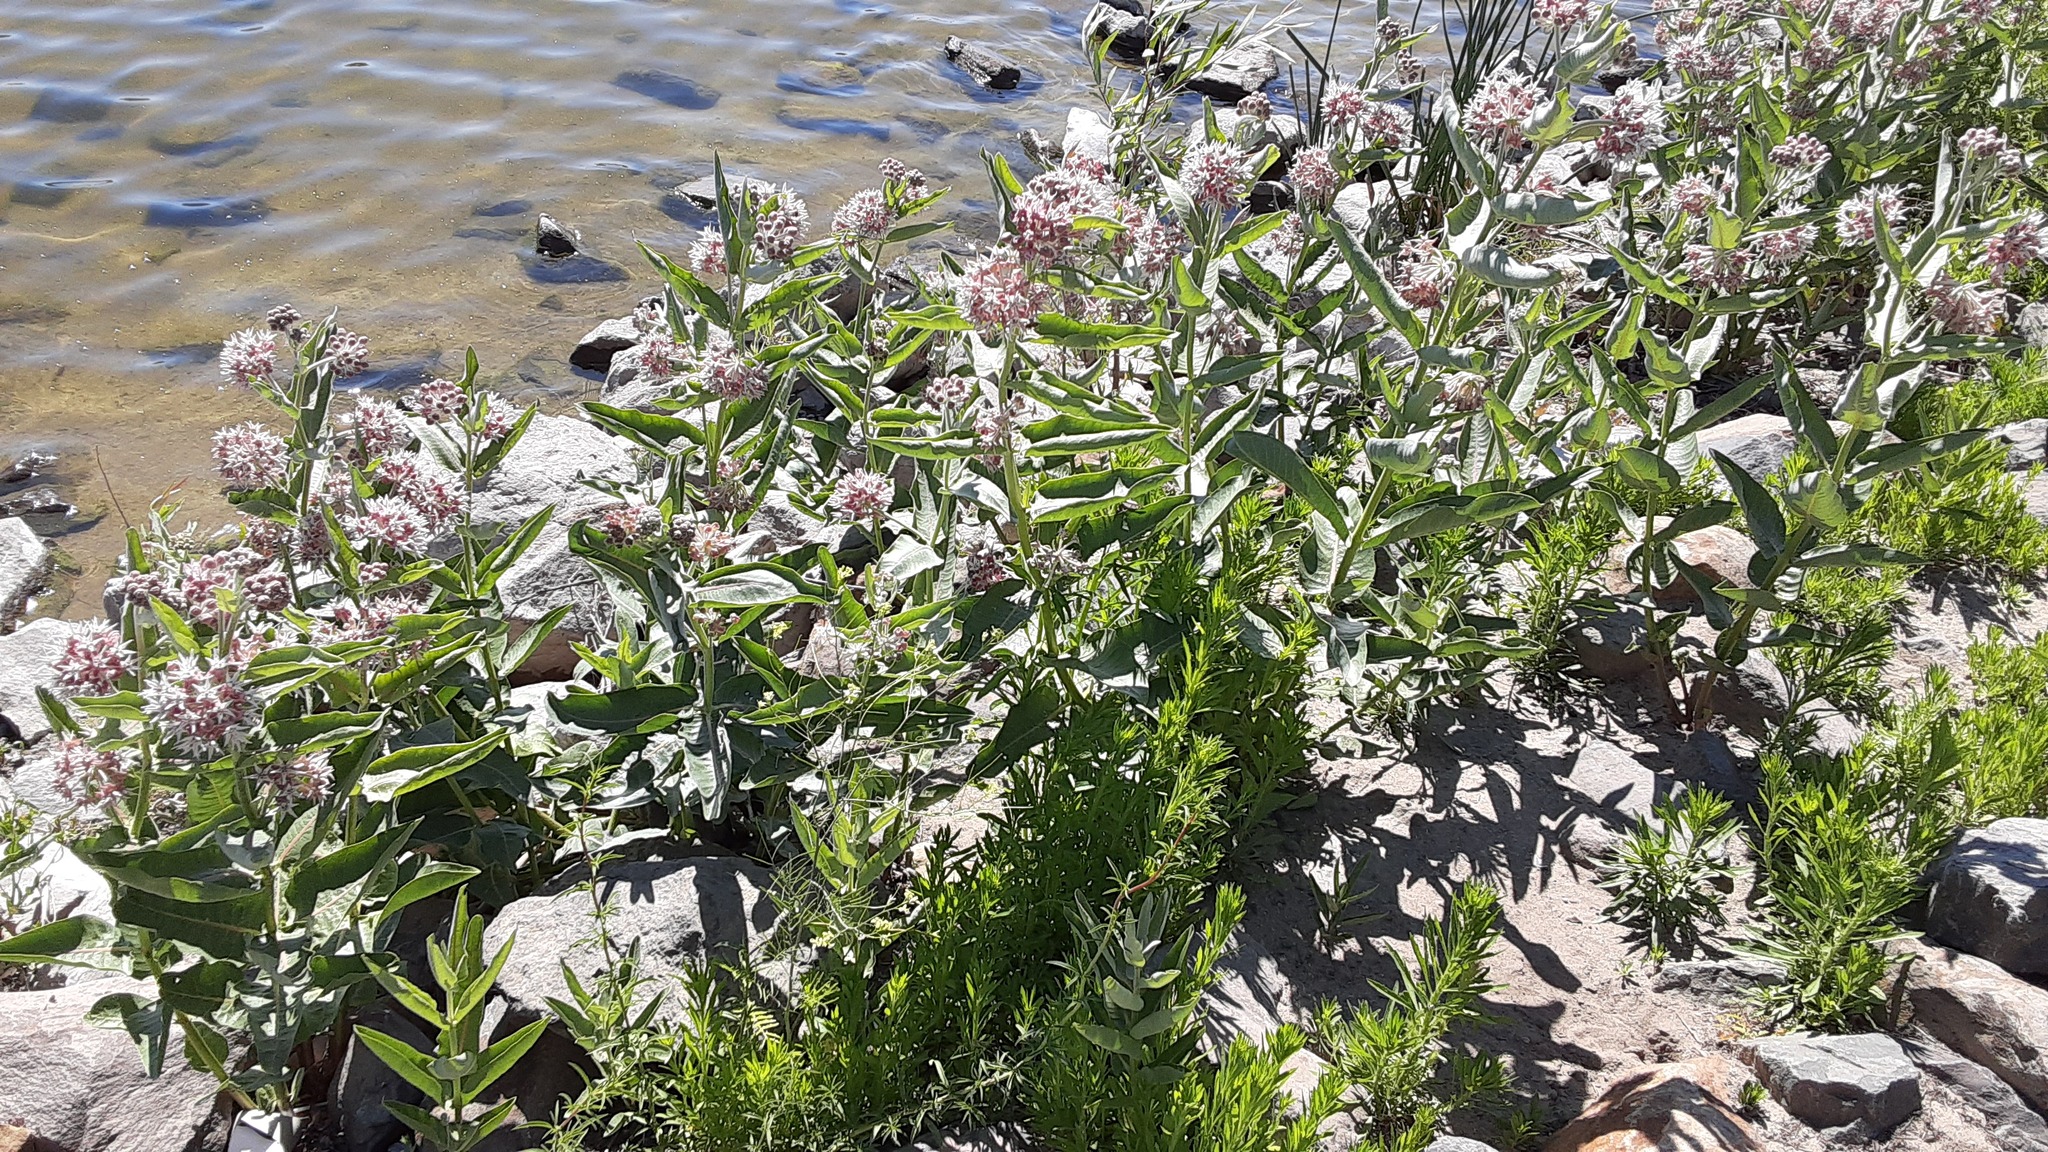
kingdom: Plantae
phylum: Tracheophyta
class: Magnoliopsida
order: Gentianales
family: Apocynaceae
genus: Asclepias
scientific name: Asclepias speciosa
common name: Showy milkweed
